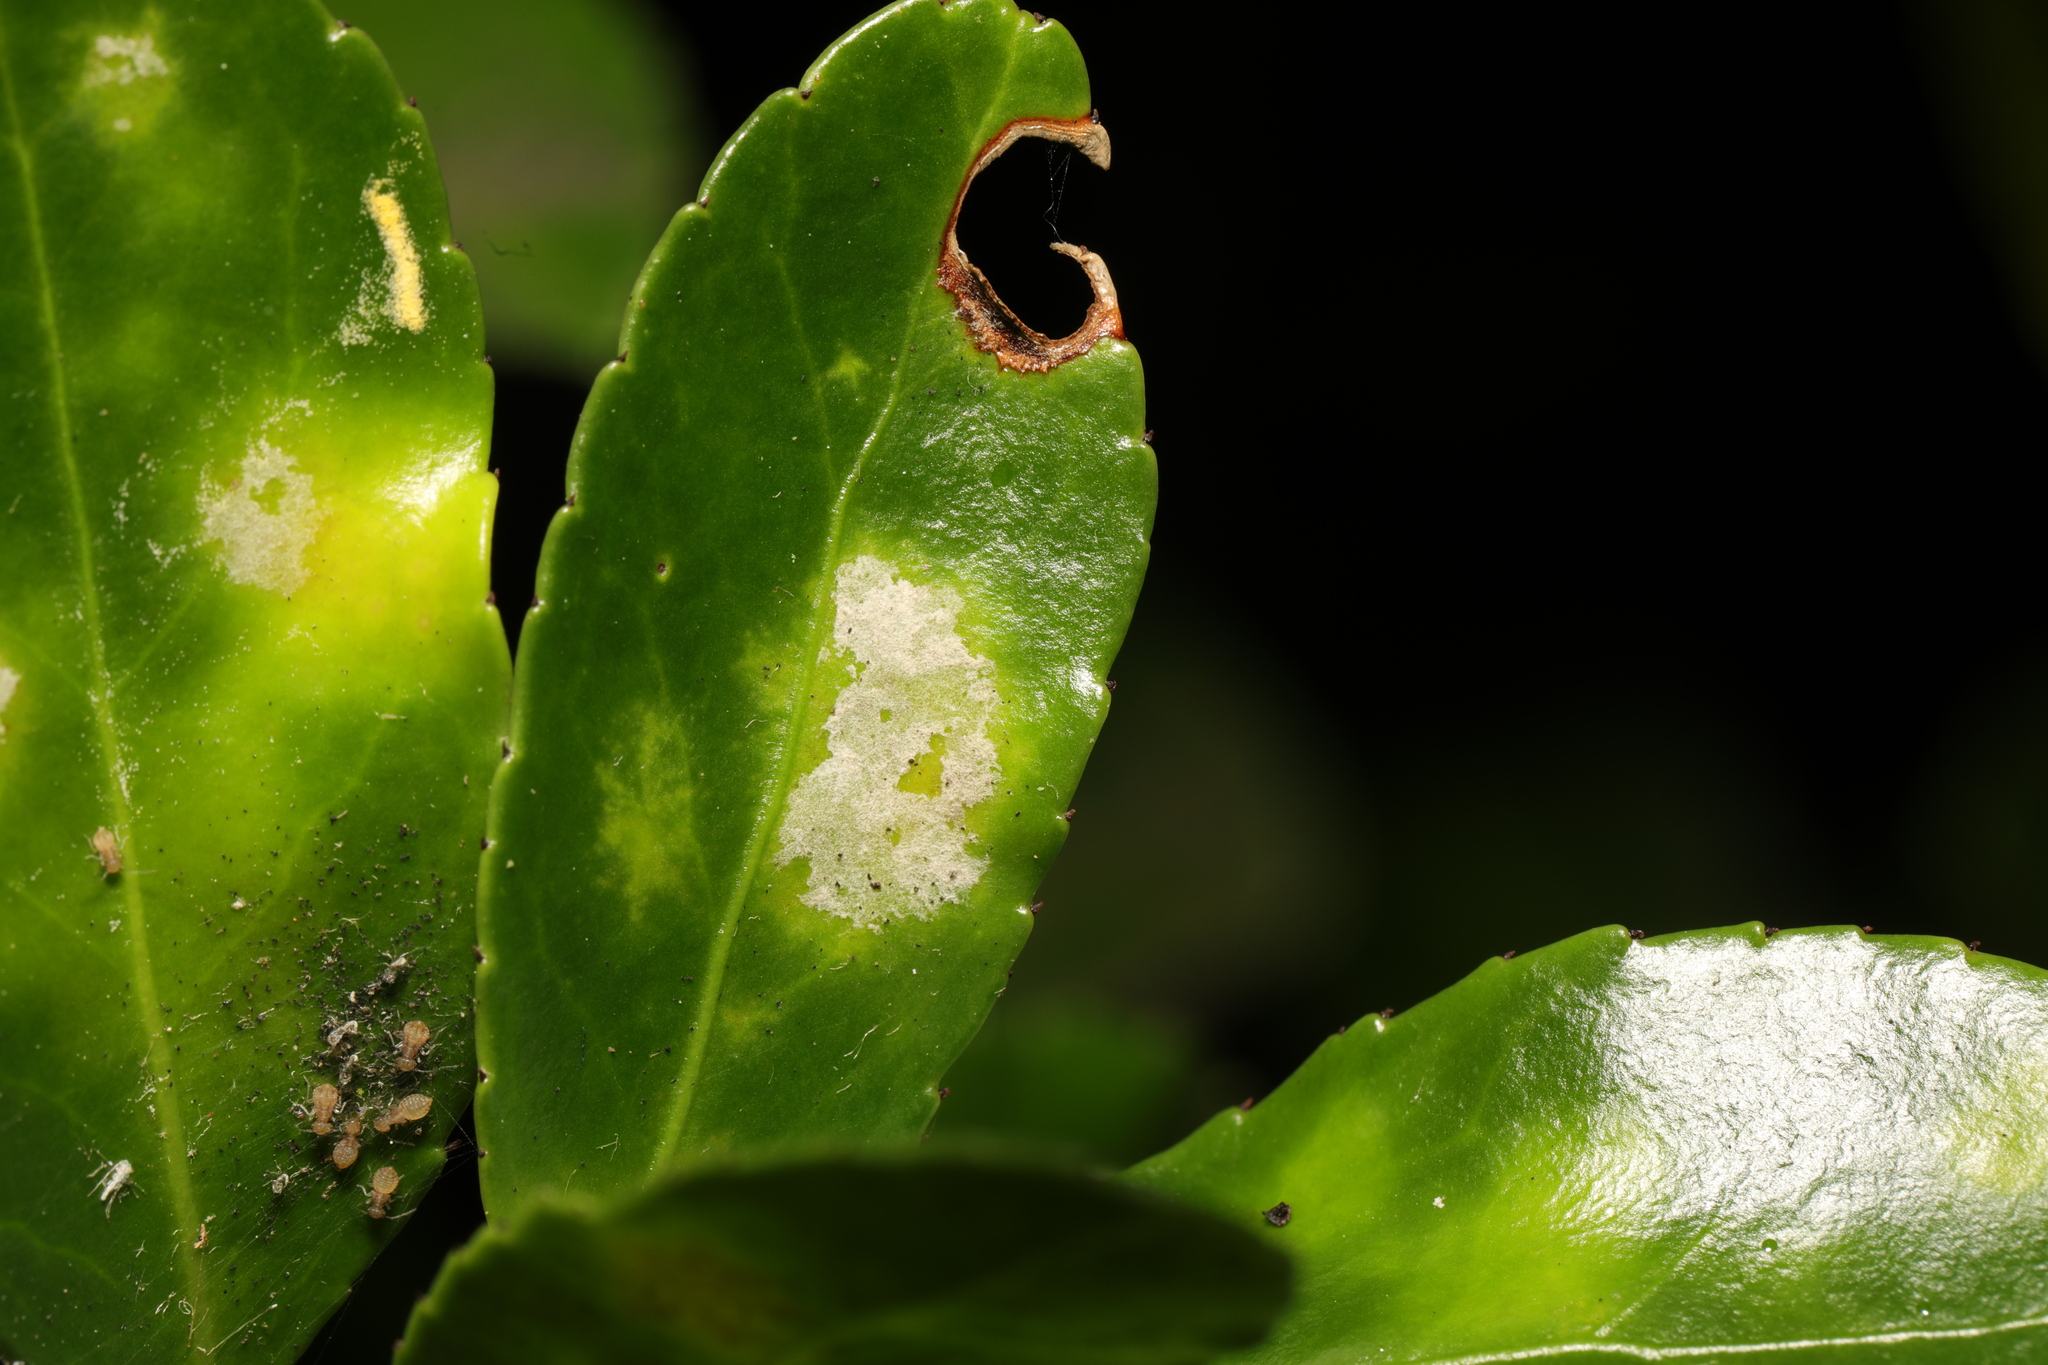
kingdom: Fungi
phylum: Ascomycota
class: Leotiomycetes
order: Helotiales
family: Erysiphaceae
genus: Erysiphe
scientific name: Erysiphe euonymicola
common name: Spindletree mildew
